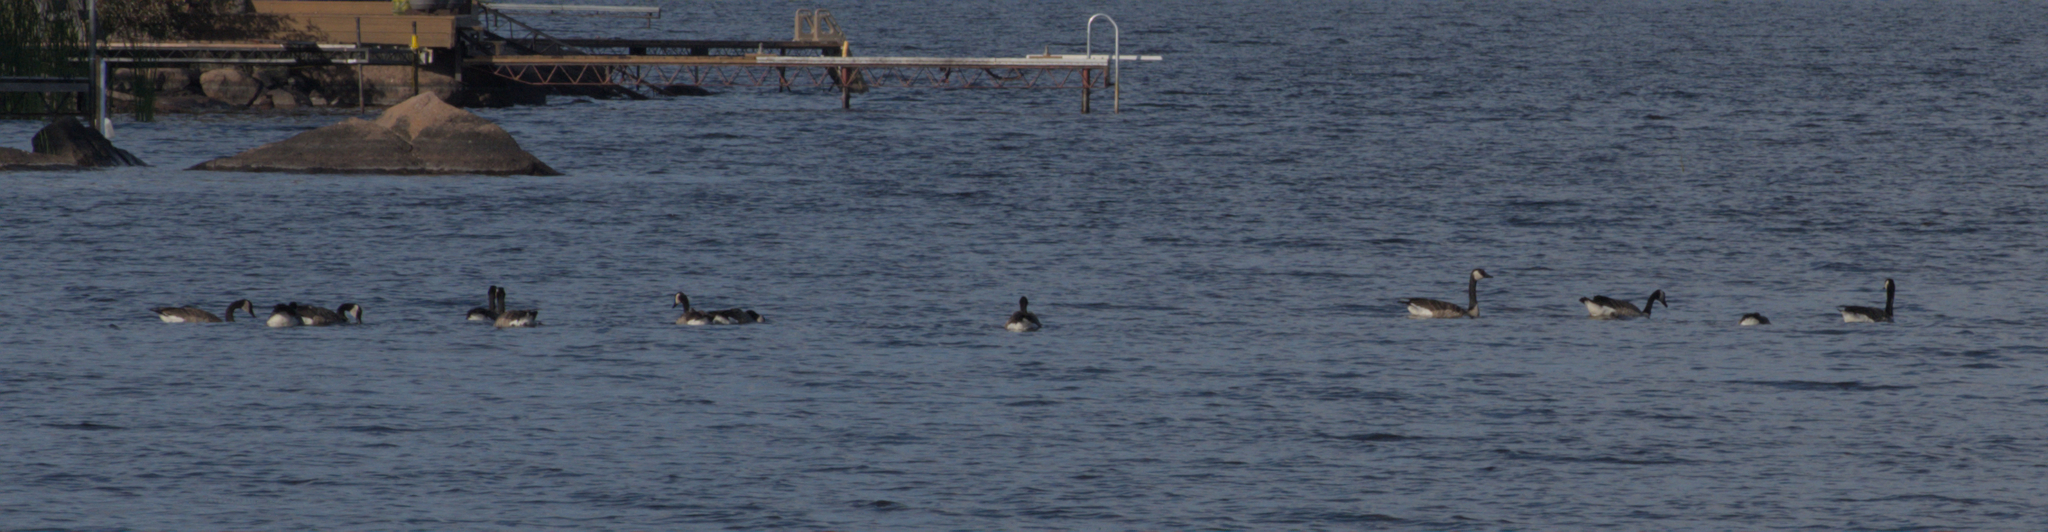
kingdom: Animalia
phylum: Chordata
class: Aves
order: Anseriformes
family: Anatidae
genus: Branta
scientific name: Branta canadensis
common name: Canada goose
